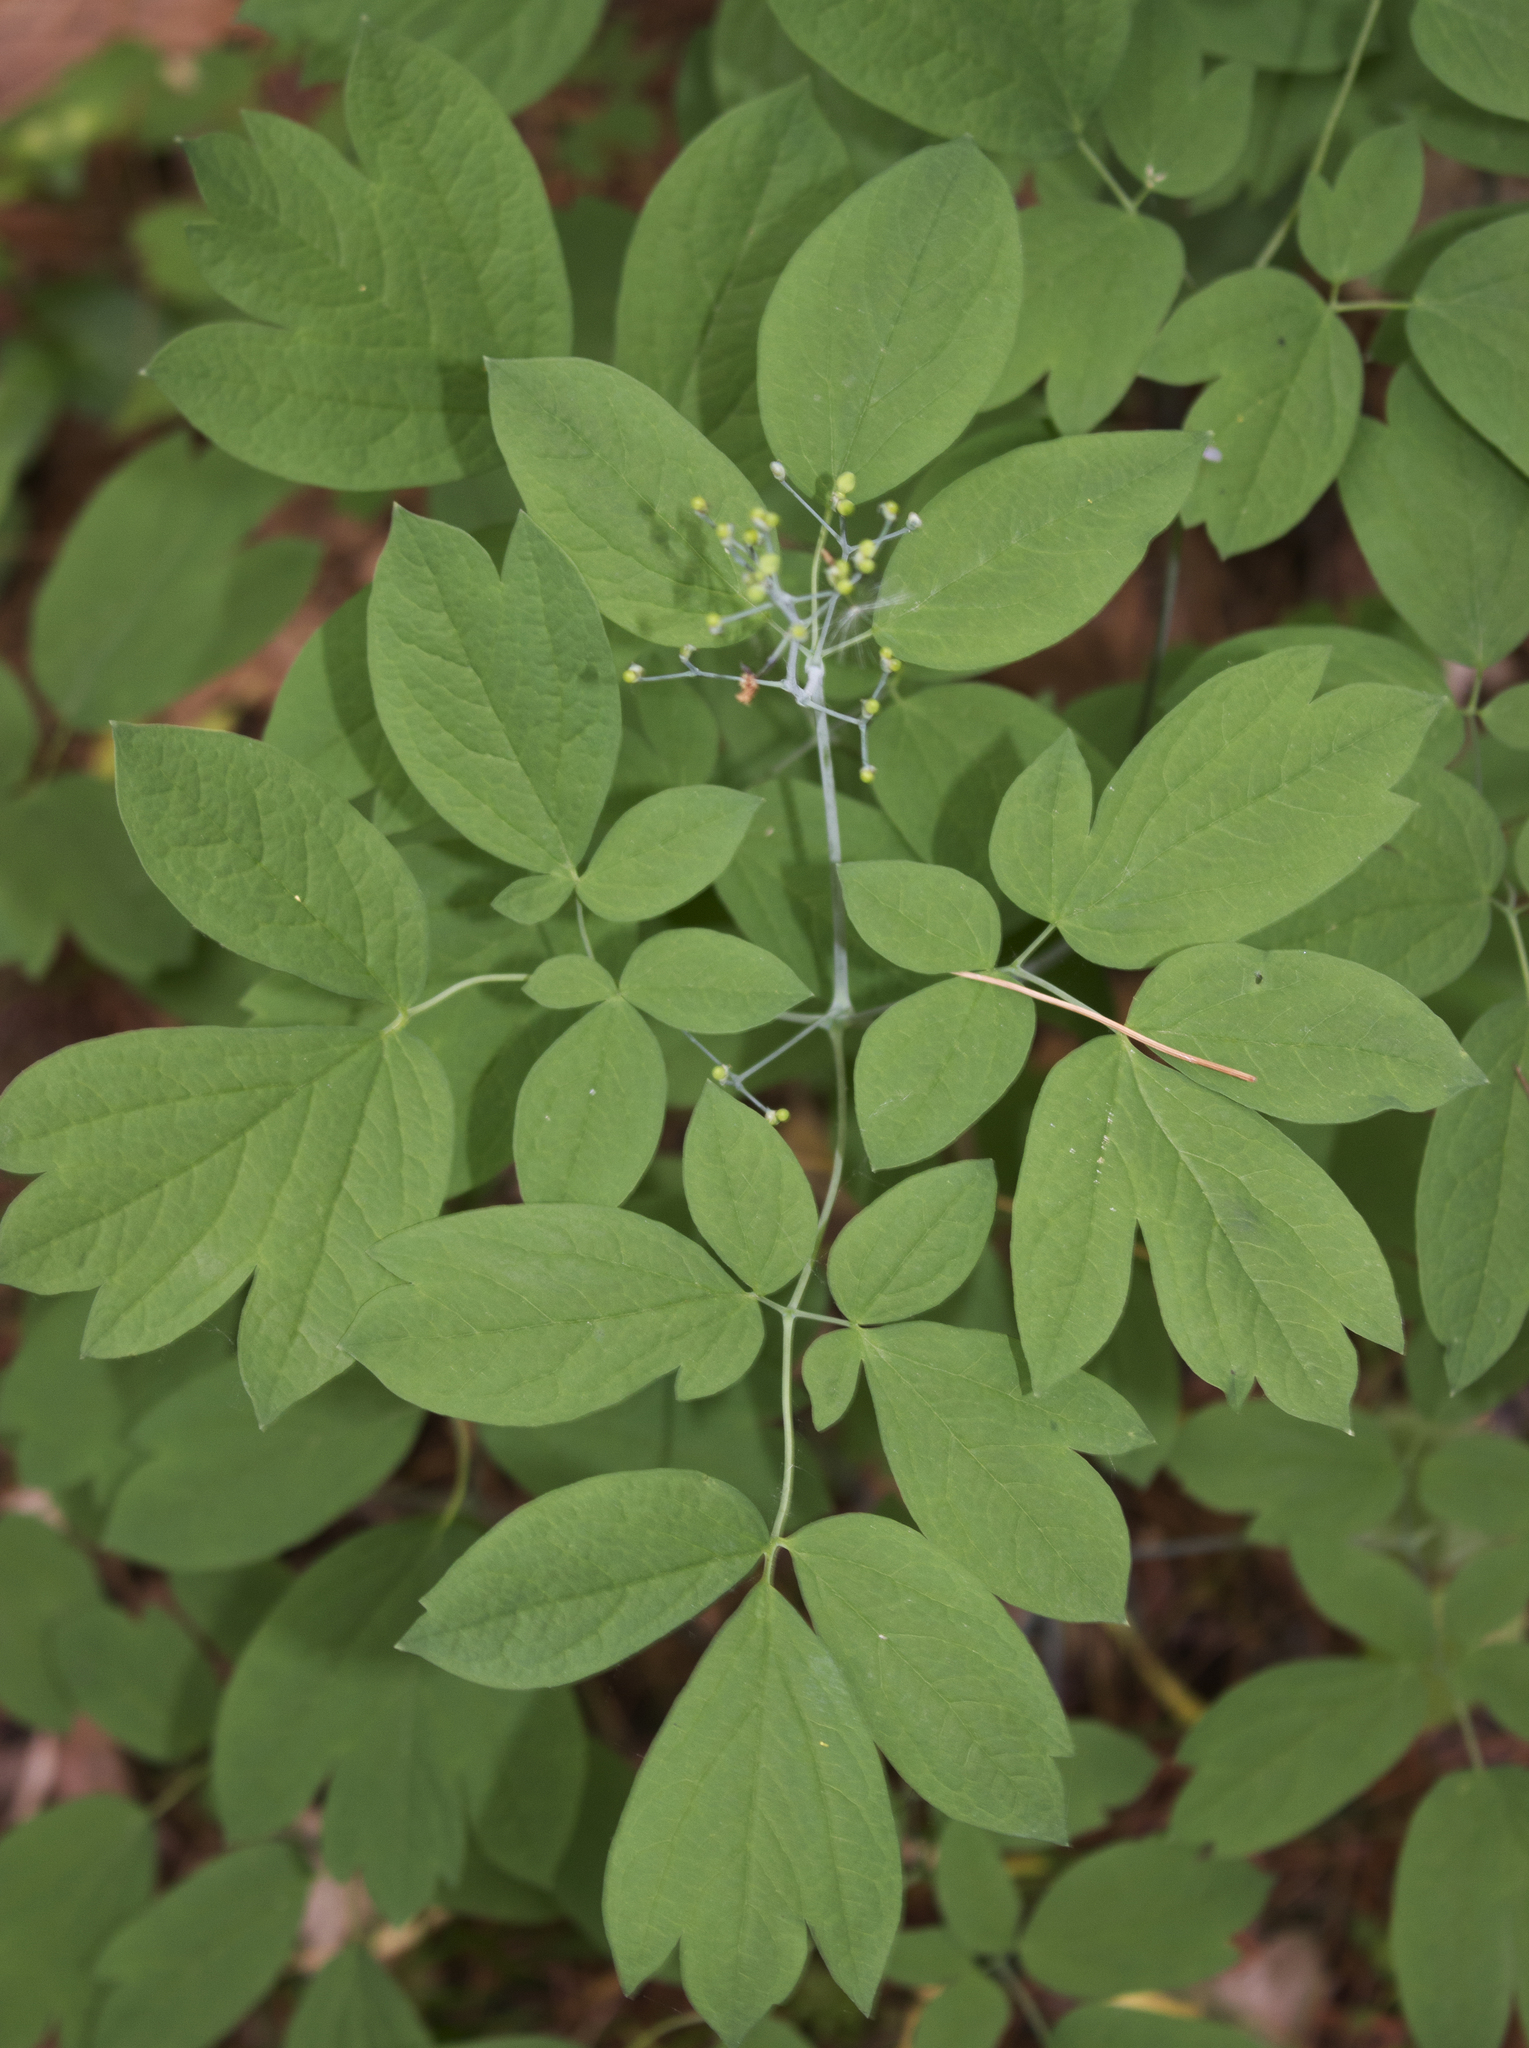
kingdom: Plantae
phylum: Tracheophyta
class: Magnoliopsida
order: Ranunculales
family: Berberidaceae
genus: Caulophyllum
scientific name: Caulophyllum thalictroides
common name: Blue cohosh
